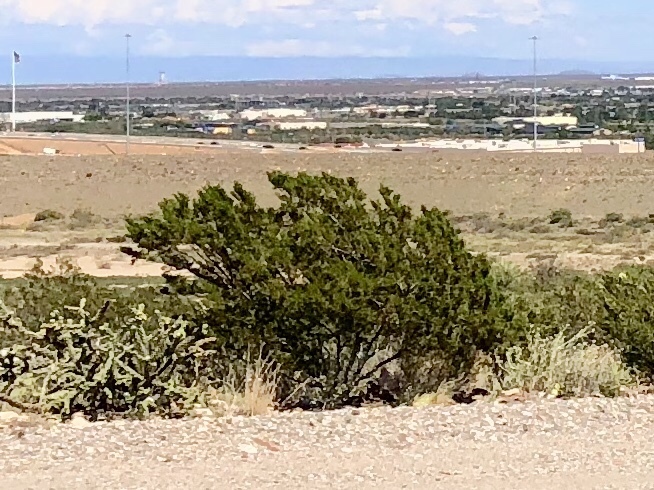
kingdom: Plantae
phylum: Tracheophyta
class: Magnoliopsida
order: Zygophyllales
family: Zygophyllaceae
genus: Larrea
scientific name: Larrea tridentata
